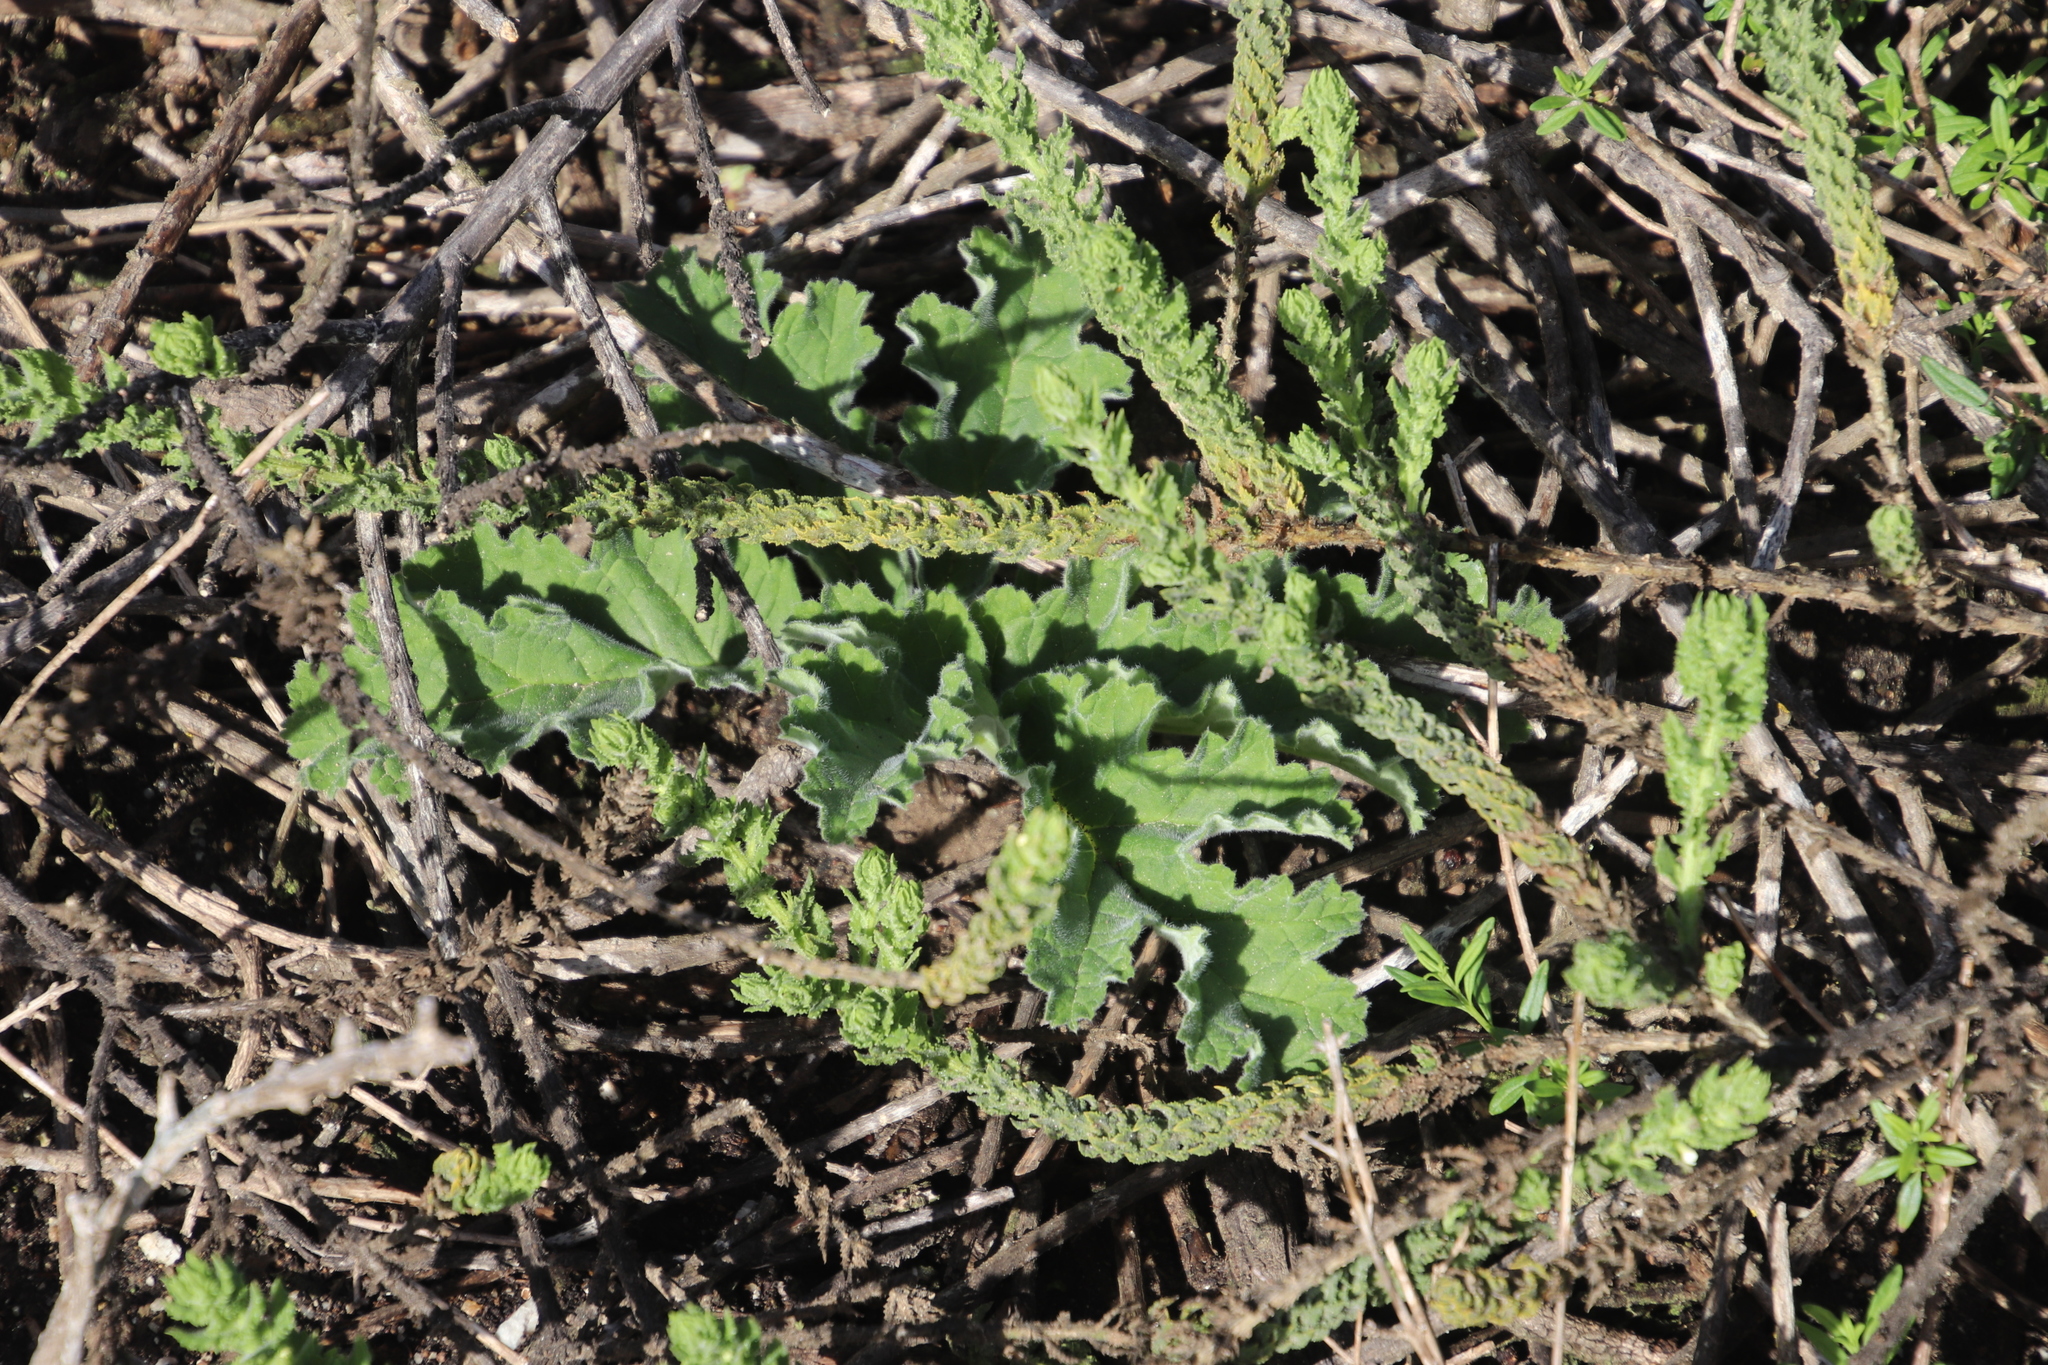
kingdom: Plantae
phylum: Tracheophyta
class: Magnoliopsida
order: Geraniales
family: Geraniaceae
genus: Pelargonium
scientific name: Pelargonium lobatum
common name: Vine-leaf pelargonium
